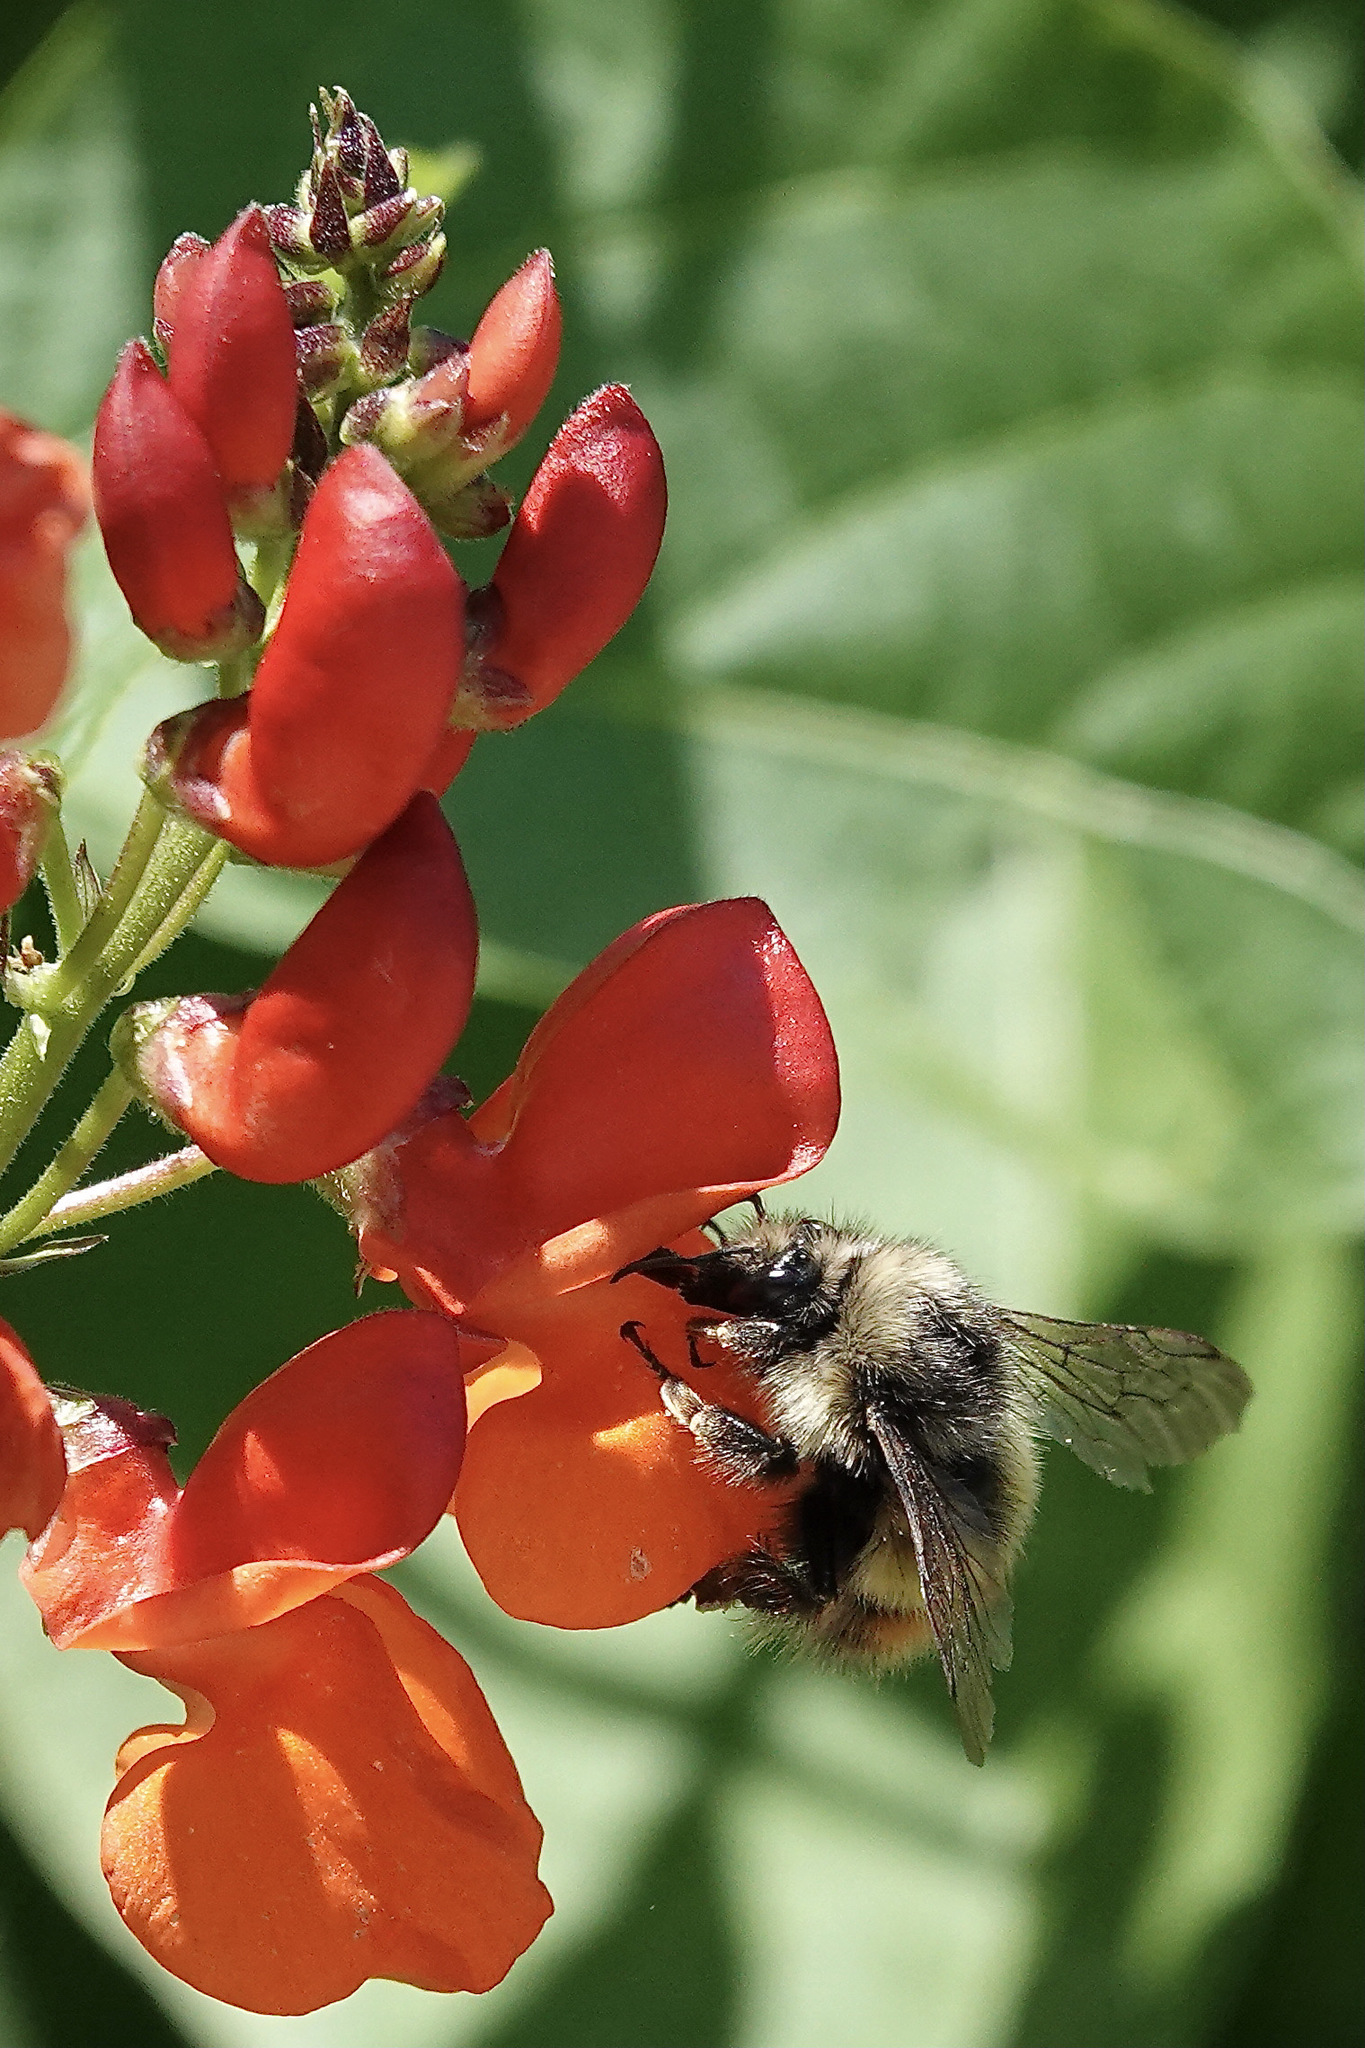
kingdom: Animalia
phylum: Arthropoda
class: Insecta
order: Hymenoptera
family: Apidae
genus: Bombus
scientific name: Bombus flavifrons
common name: Yellow head bumble bee
